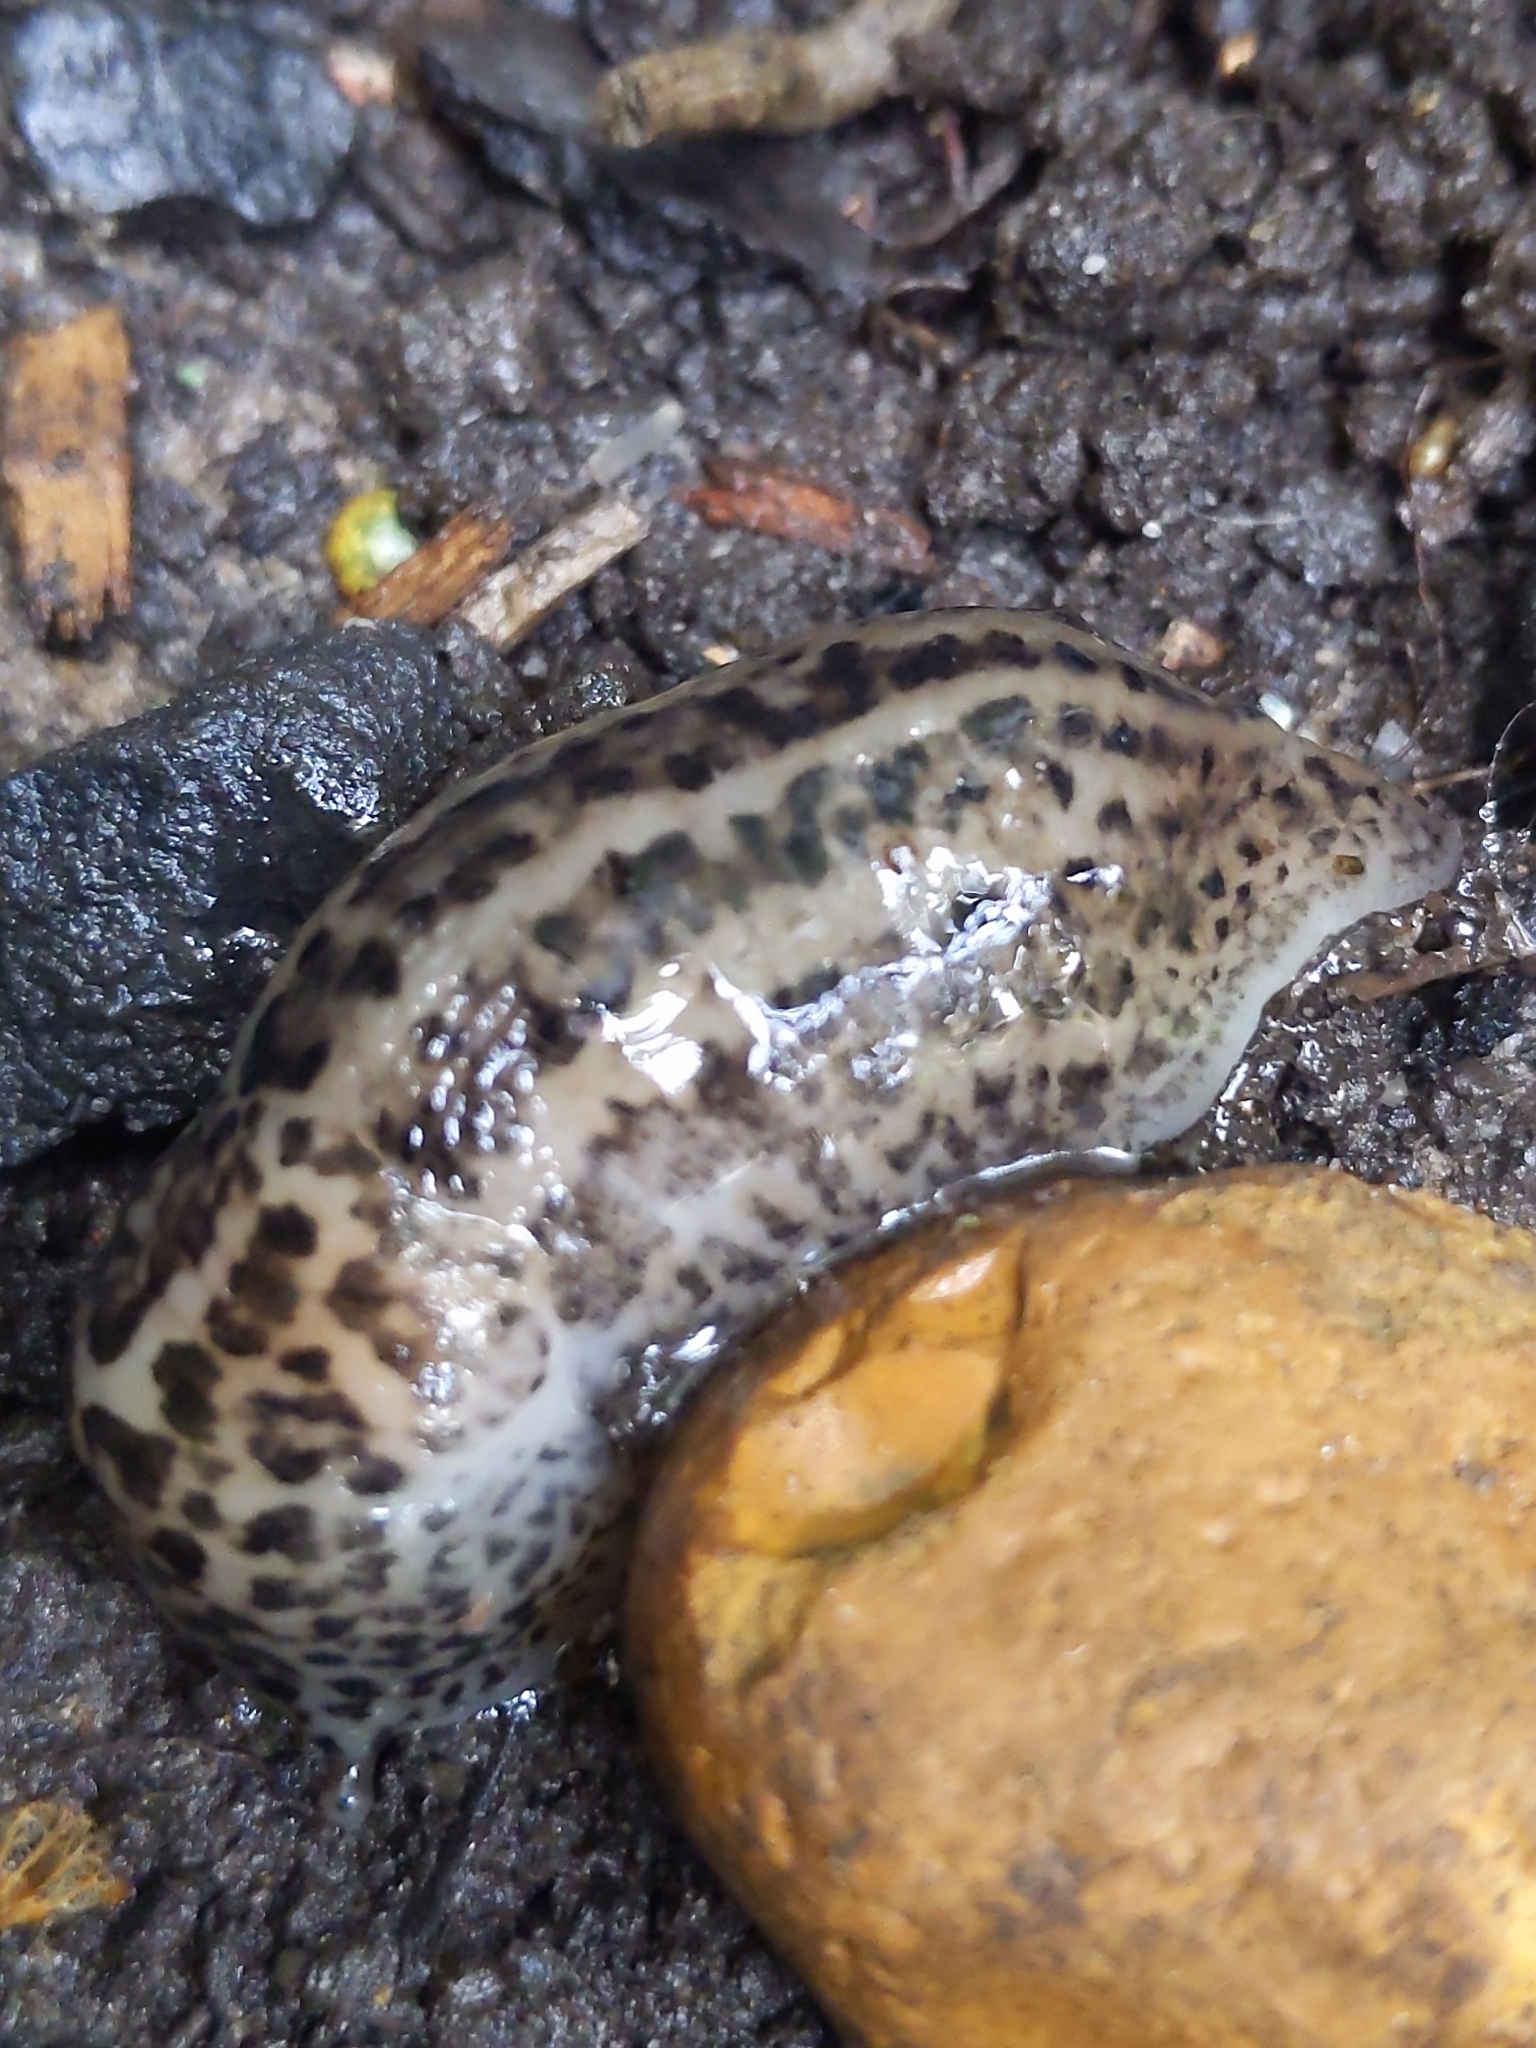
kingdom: Animalia
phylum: Mollusca
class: Gastropoda
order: Stylommatophora
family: Limacidae
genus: Limax
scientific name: Limax maximus
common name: Great grey slug
